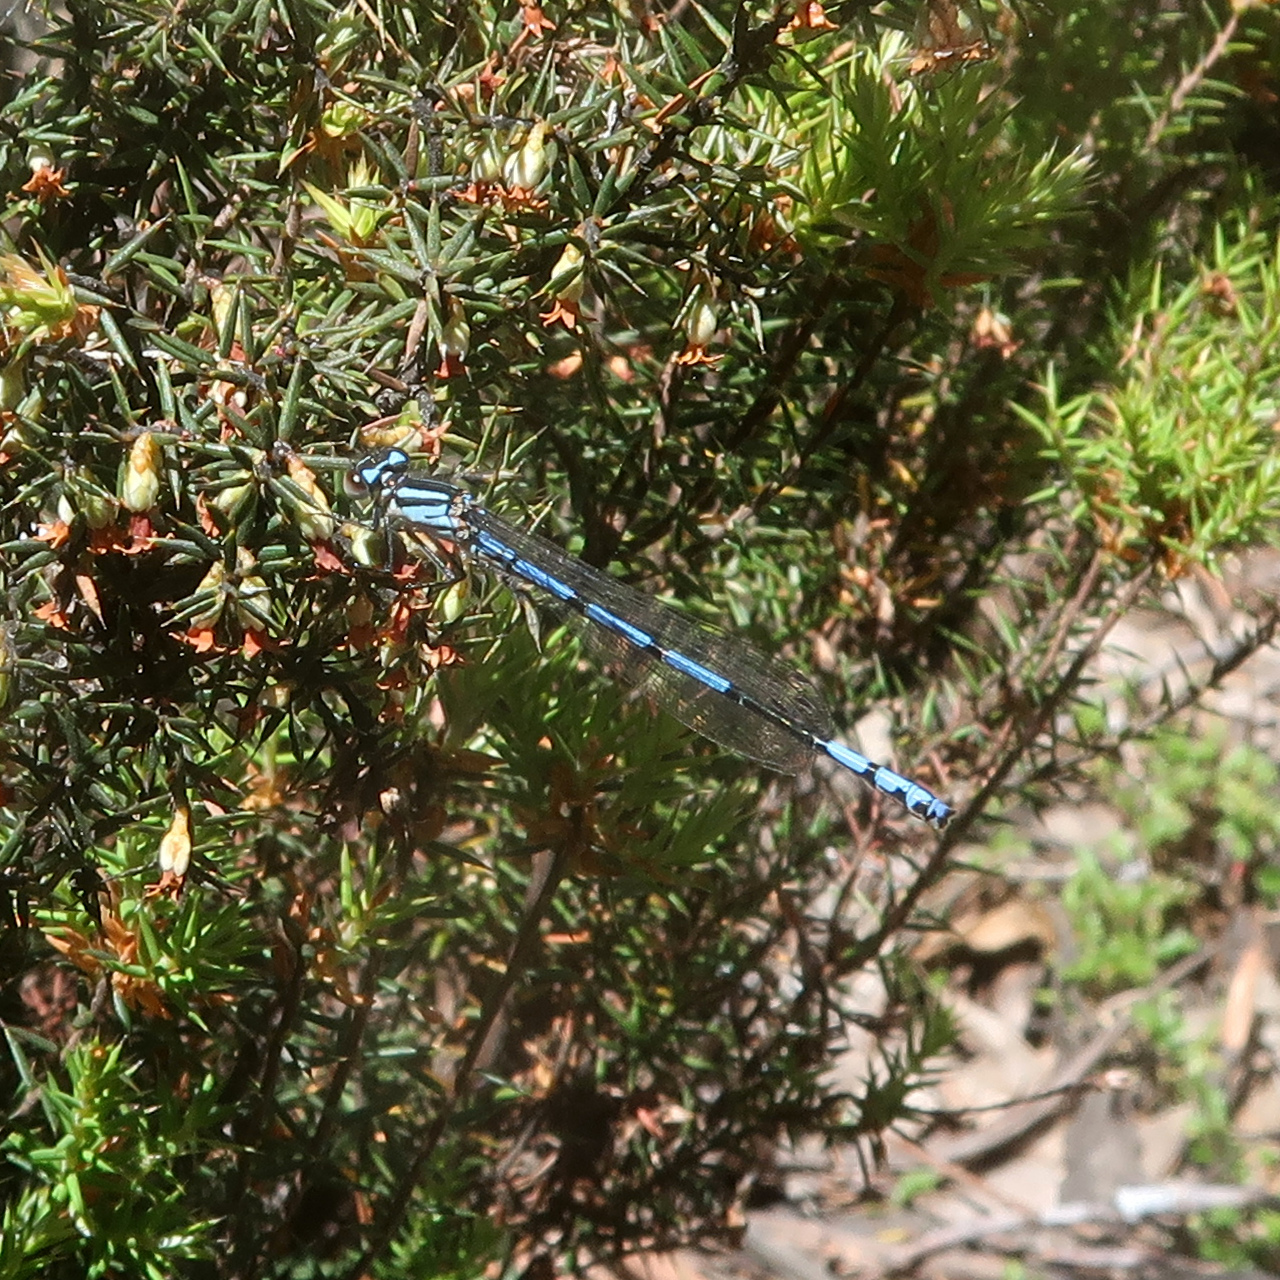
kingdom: Animalia
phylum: Arthropoda
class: Insecta
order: Odonata
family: Coenagrionidae
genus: Austrocoenagrion
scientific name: Austrocoenagrion lyelli
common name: Swamp bluet
